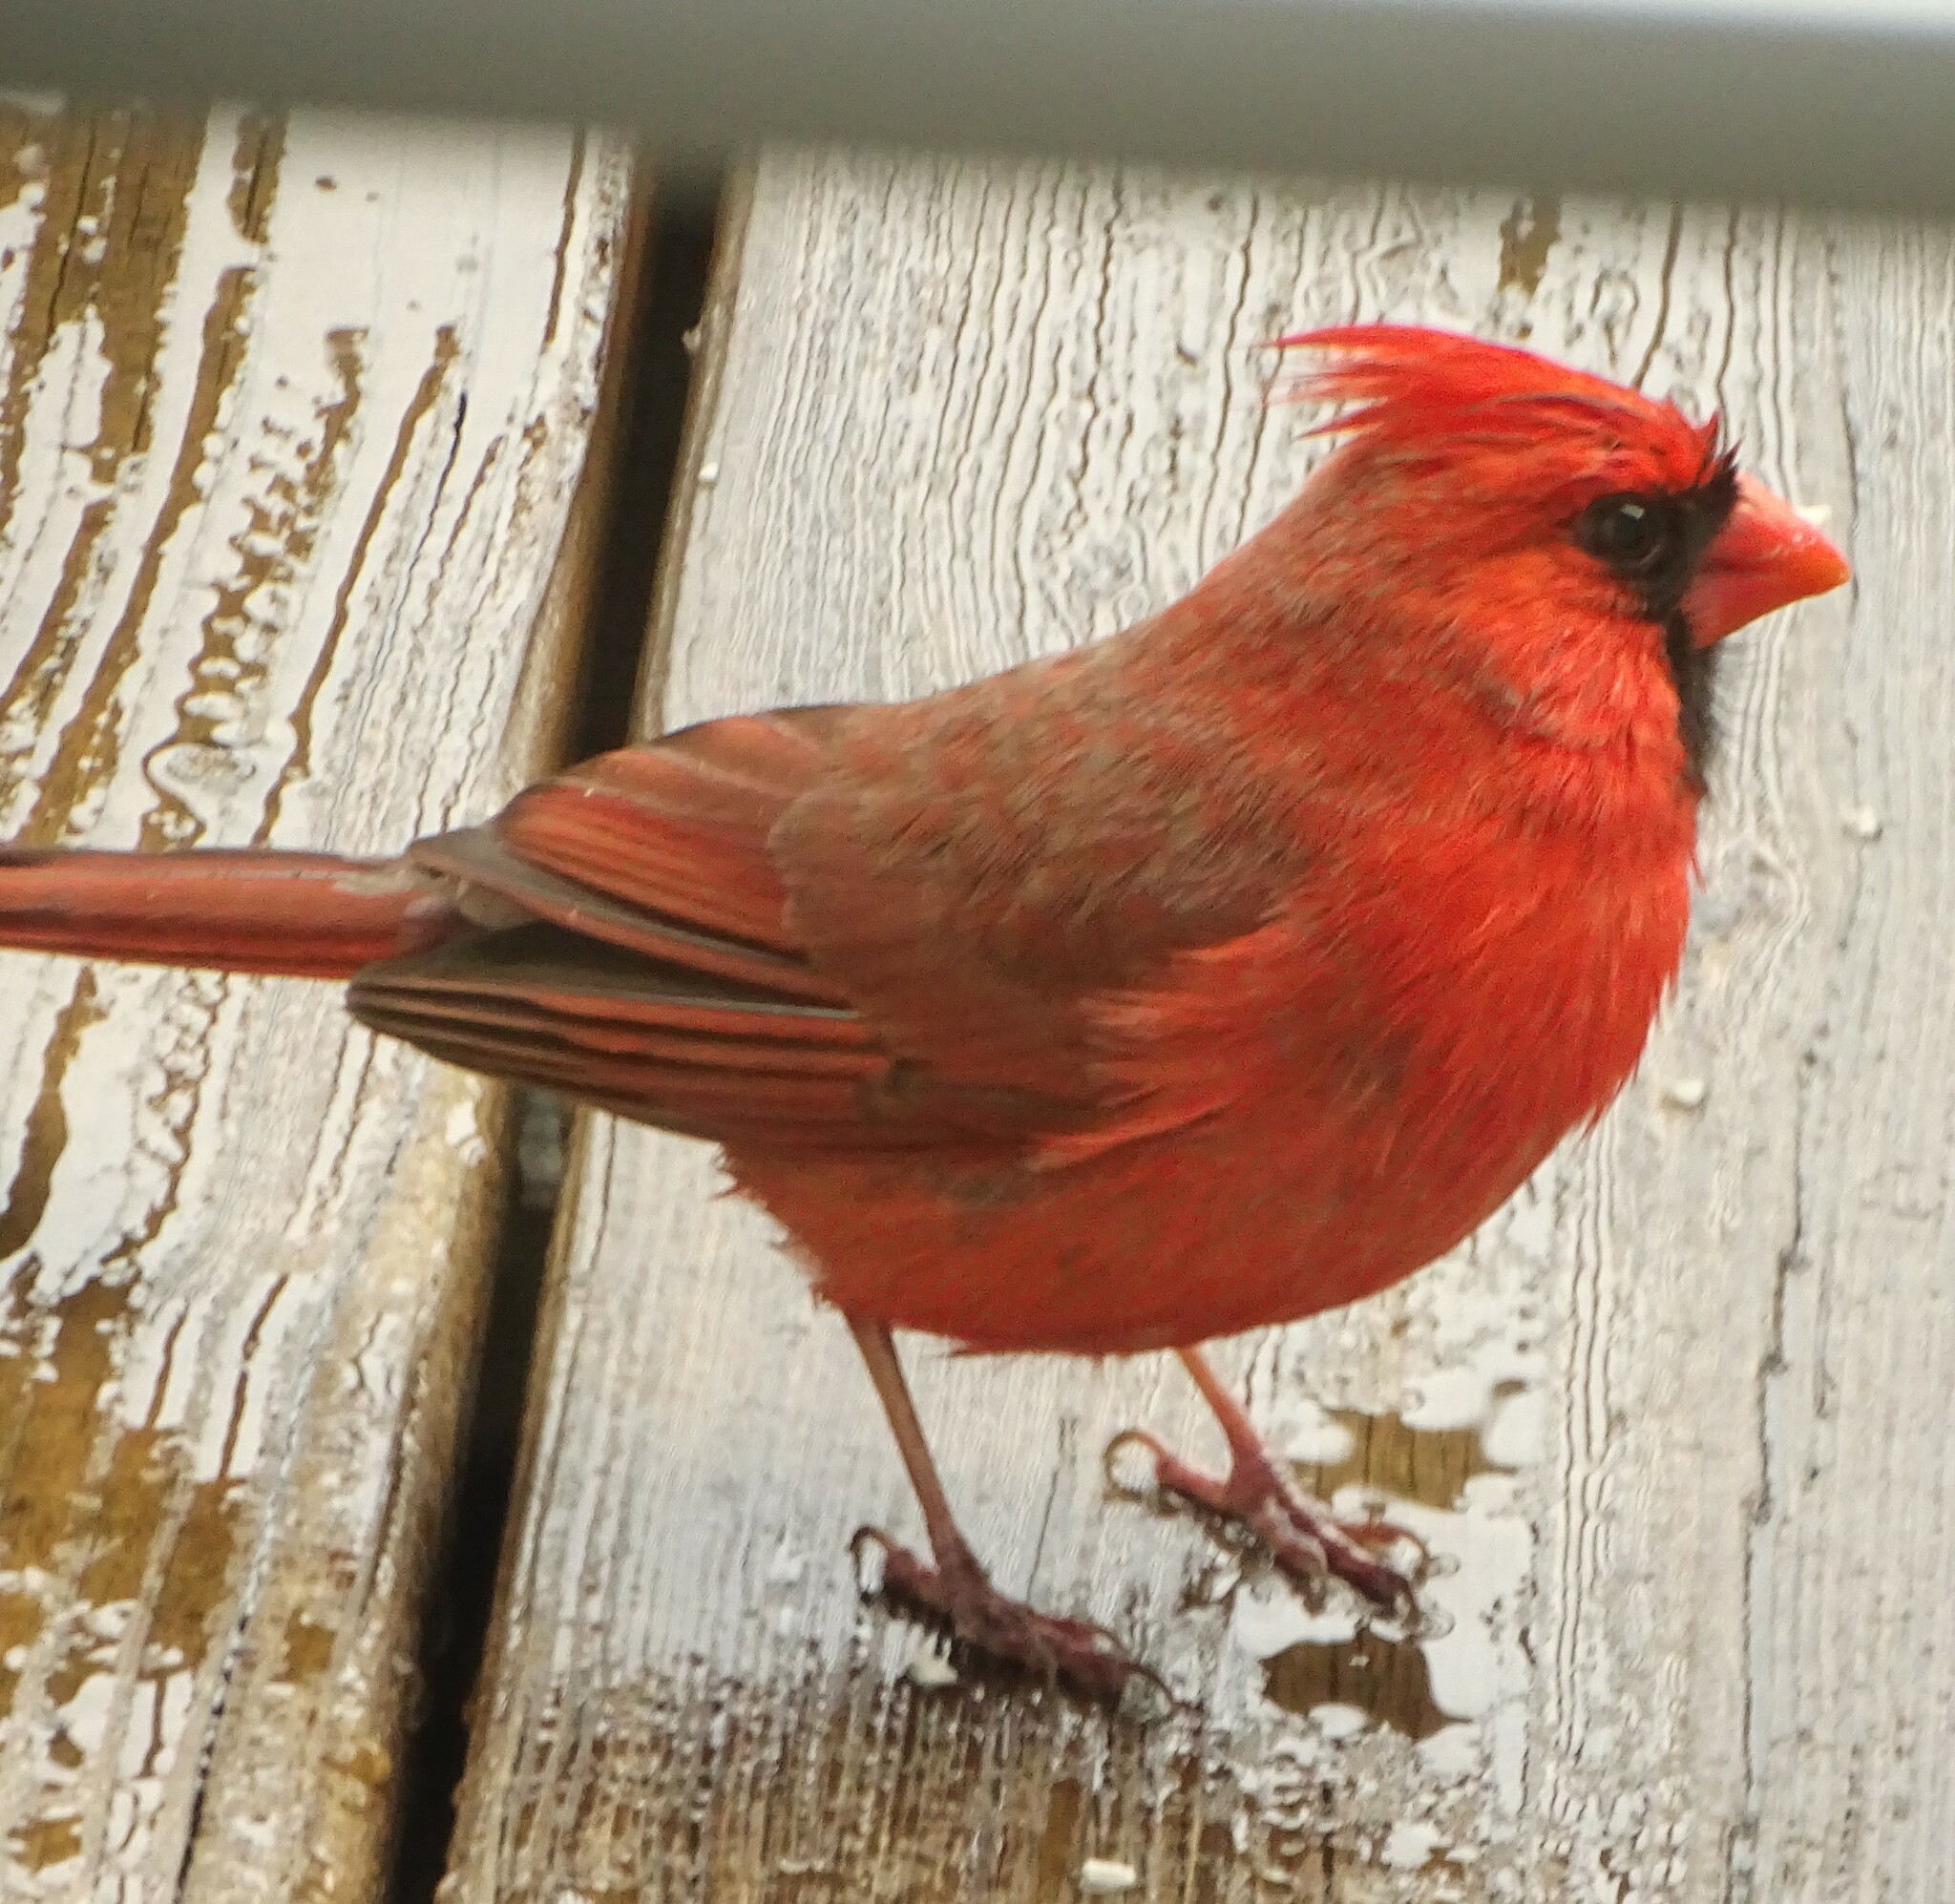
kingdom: Animalia
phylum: Chordata
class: Aves
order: Passeriformes
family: Cardinalidae
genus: Cardinalis
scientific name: Cardinalis cardinalis
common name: Northern cardinal
